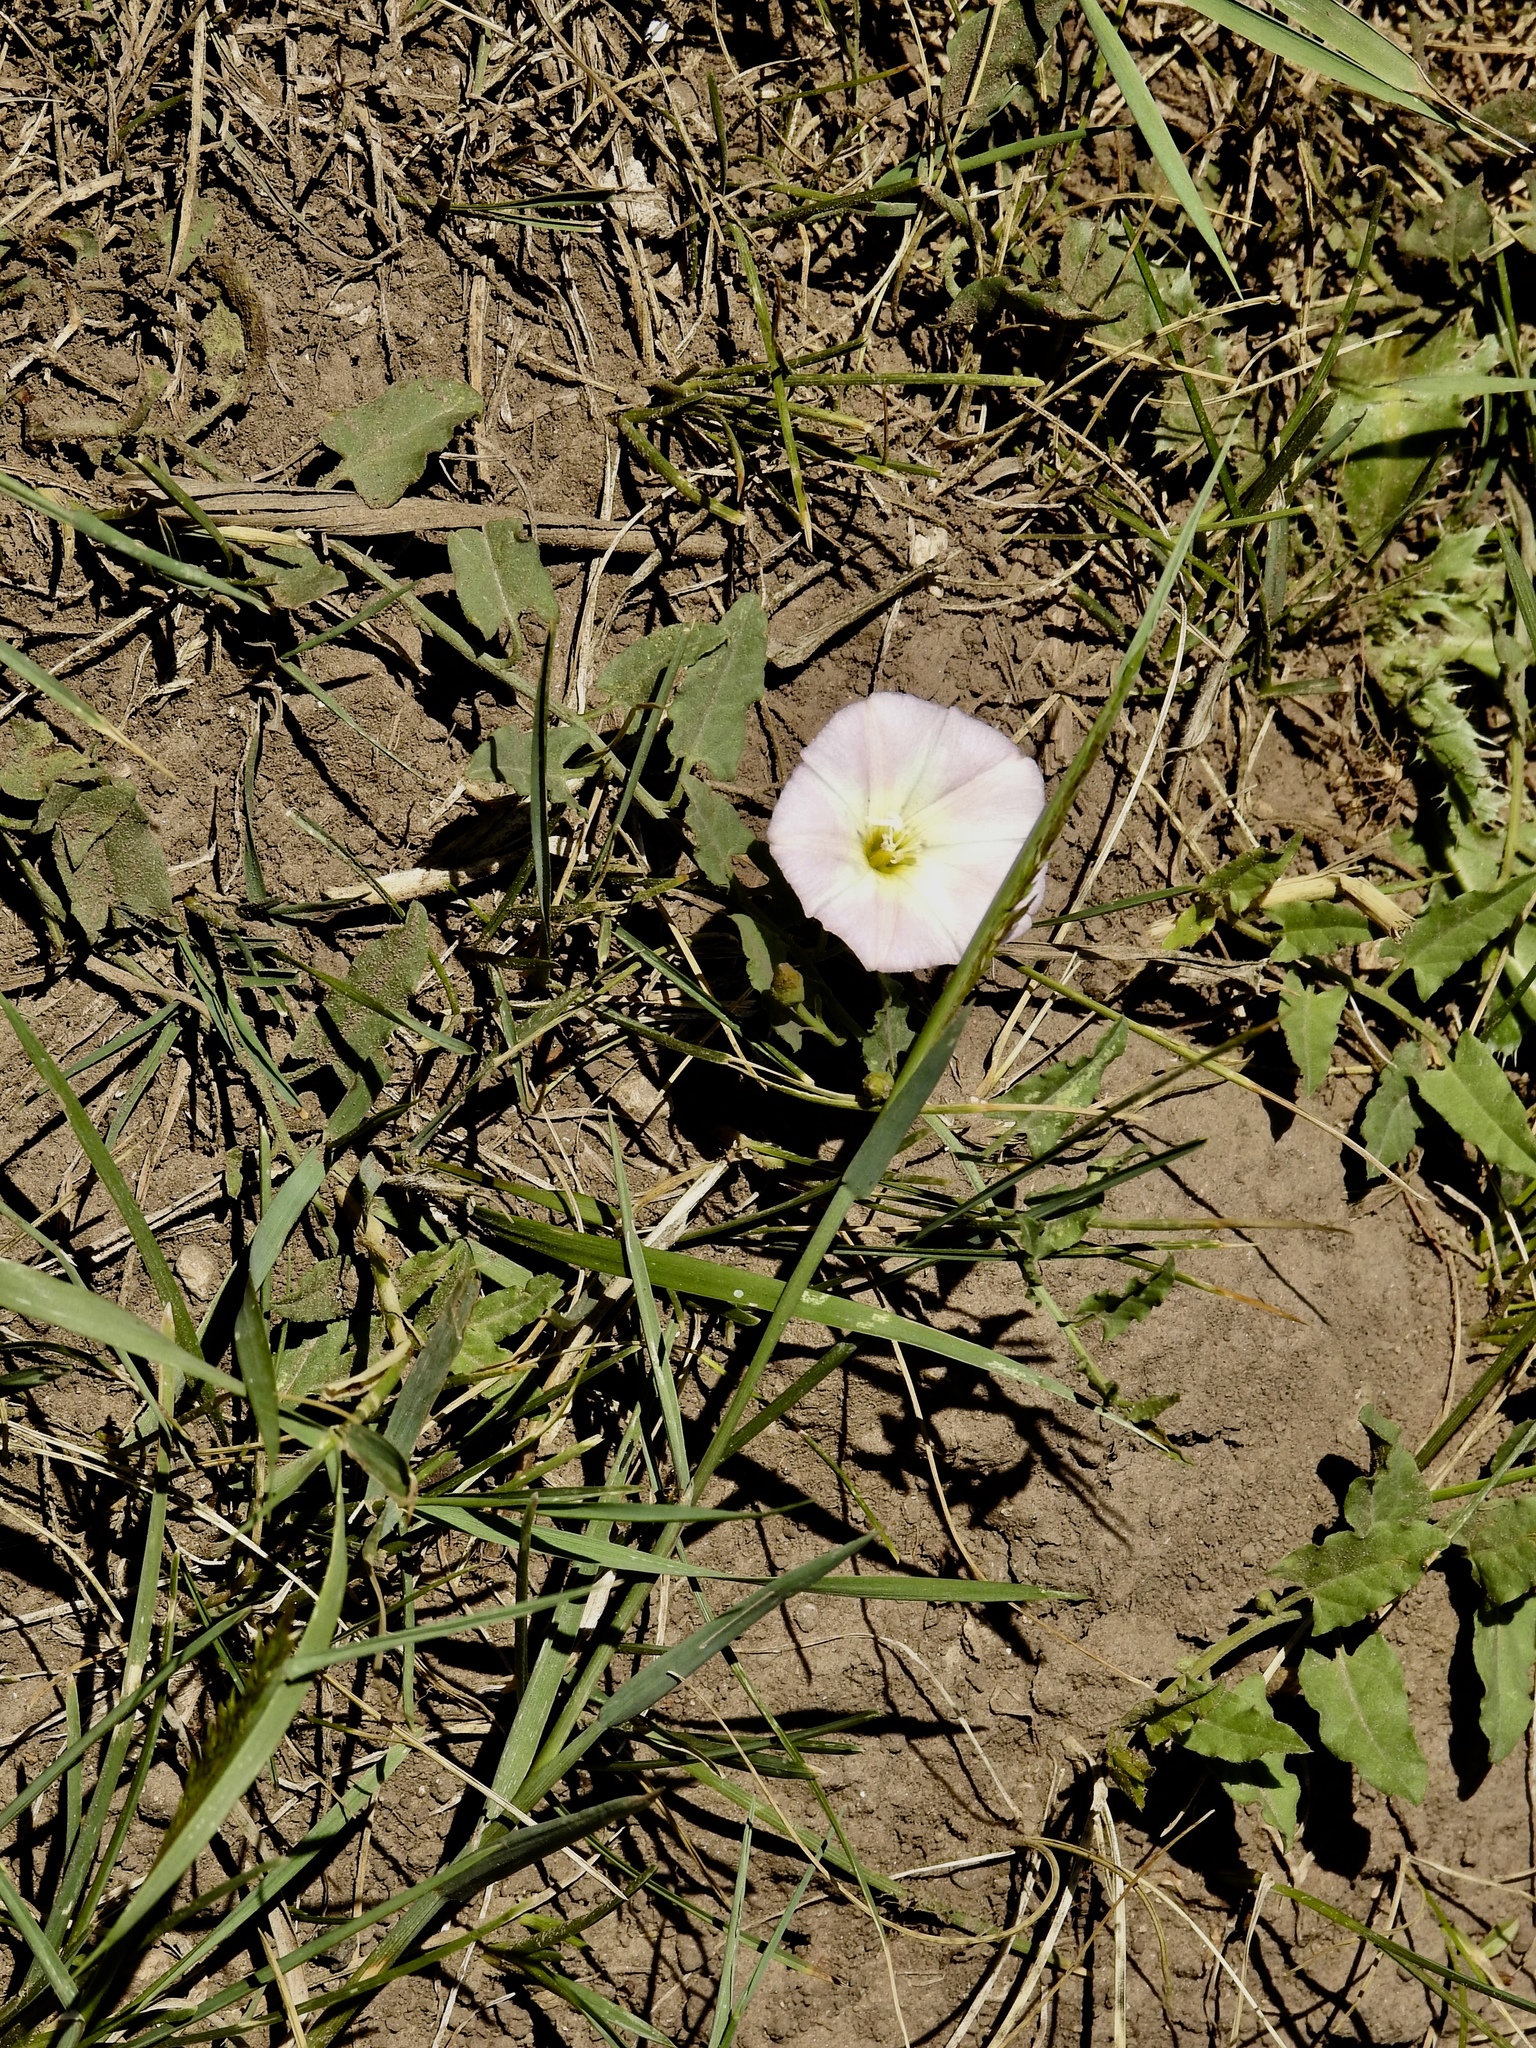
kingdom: Plantae
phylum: Tracheophyta
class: Magnoliopsida
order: Solanales
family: Convolvulaceae
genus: Convolvulus
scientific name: Convolvulus arvensis
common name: Field bindweed
